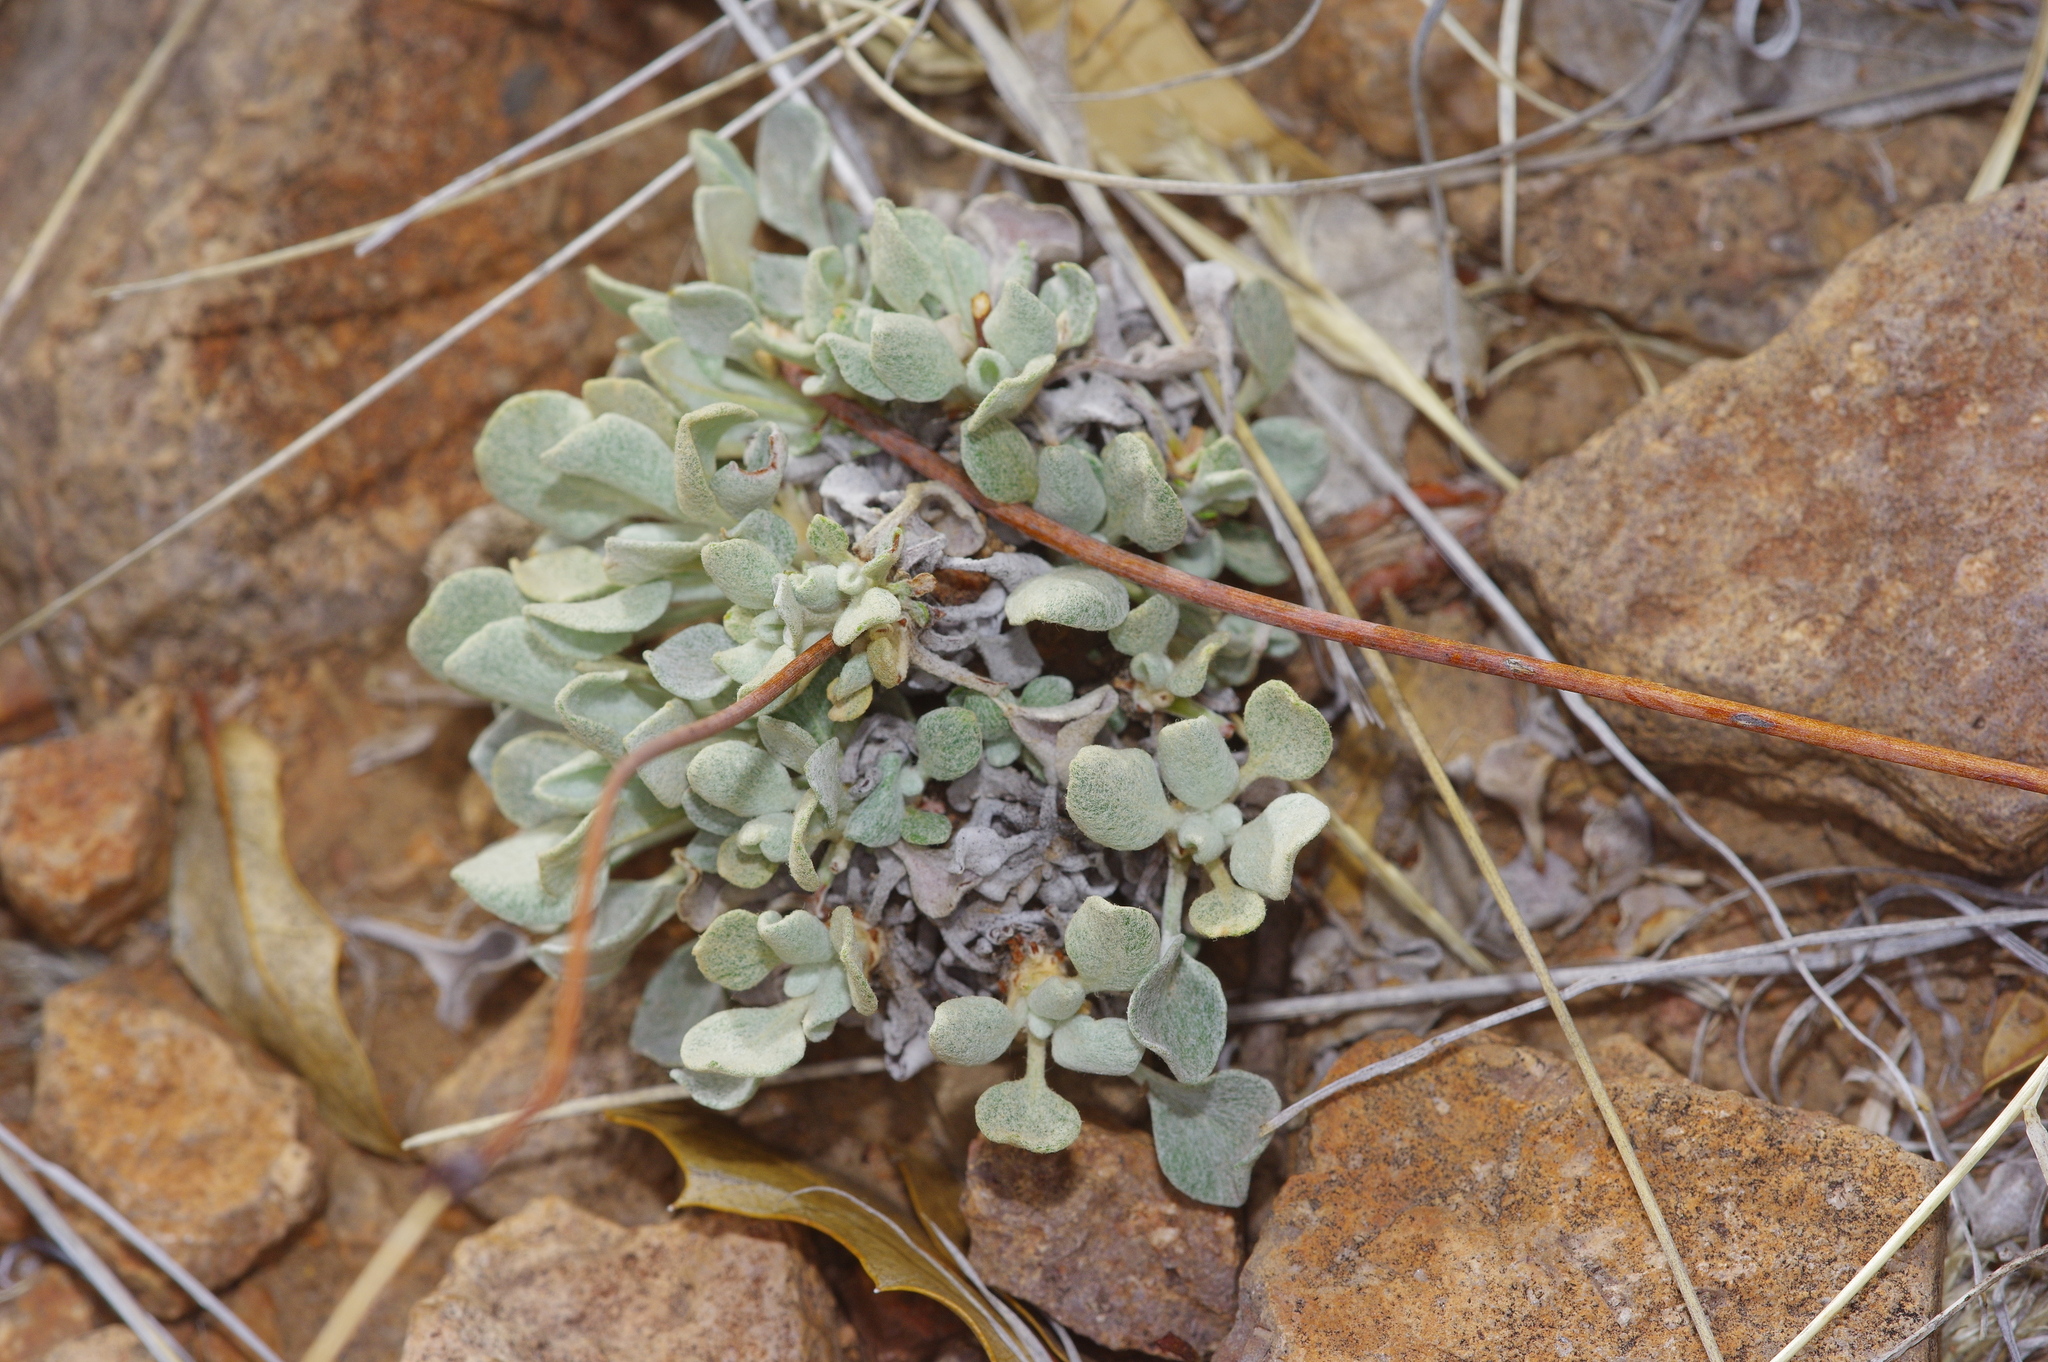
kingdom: Plantae
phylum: Tracheophyta
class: Magnoliopsida
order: Caryophyllales
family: Polygonaceae
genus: Eriogonum
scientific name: Eriogonum tenellum
